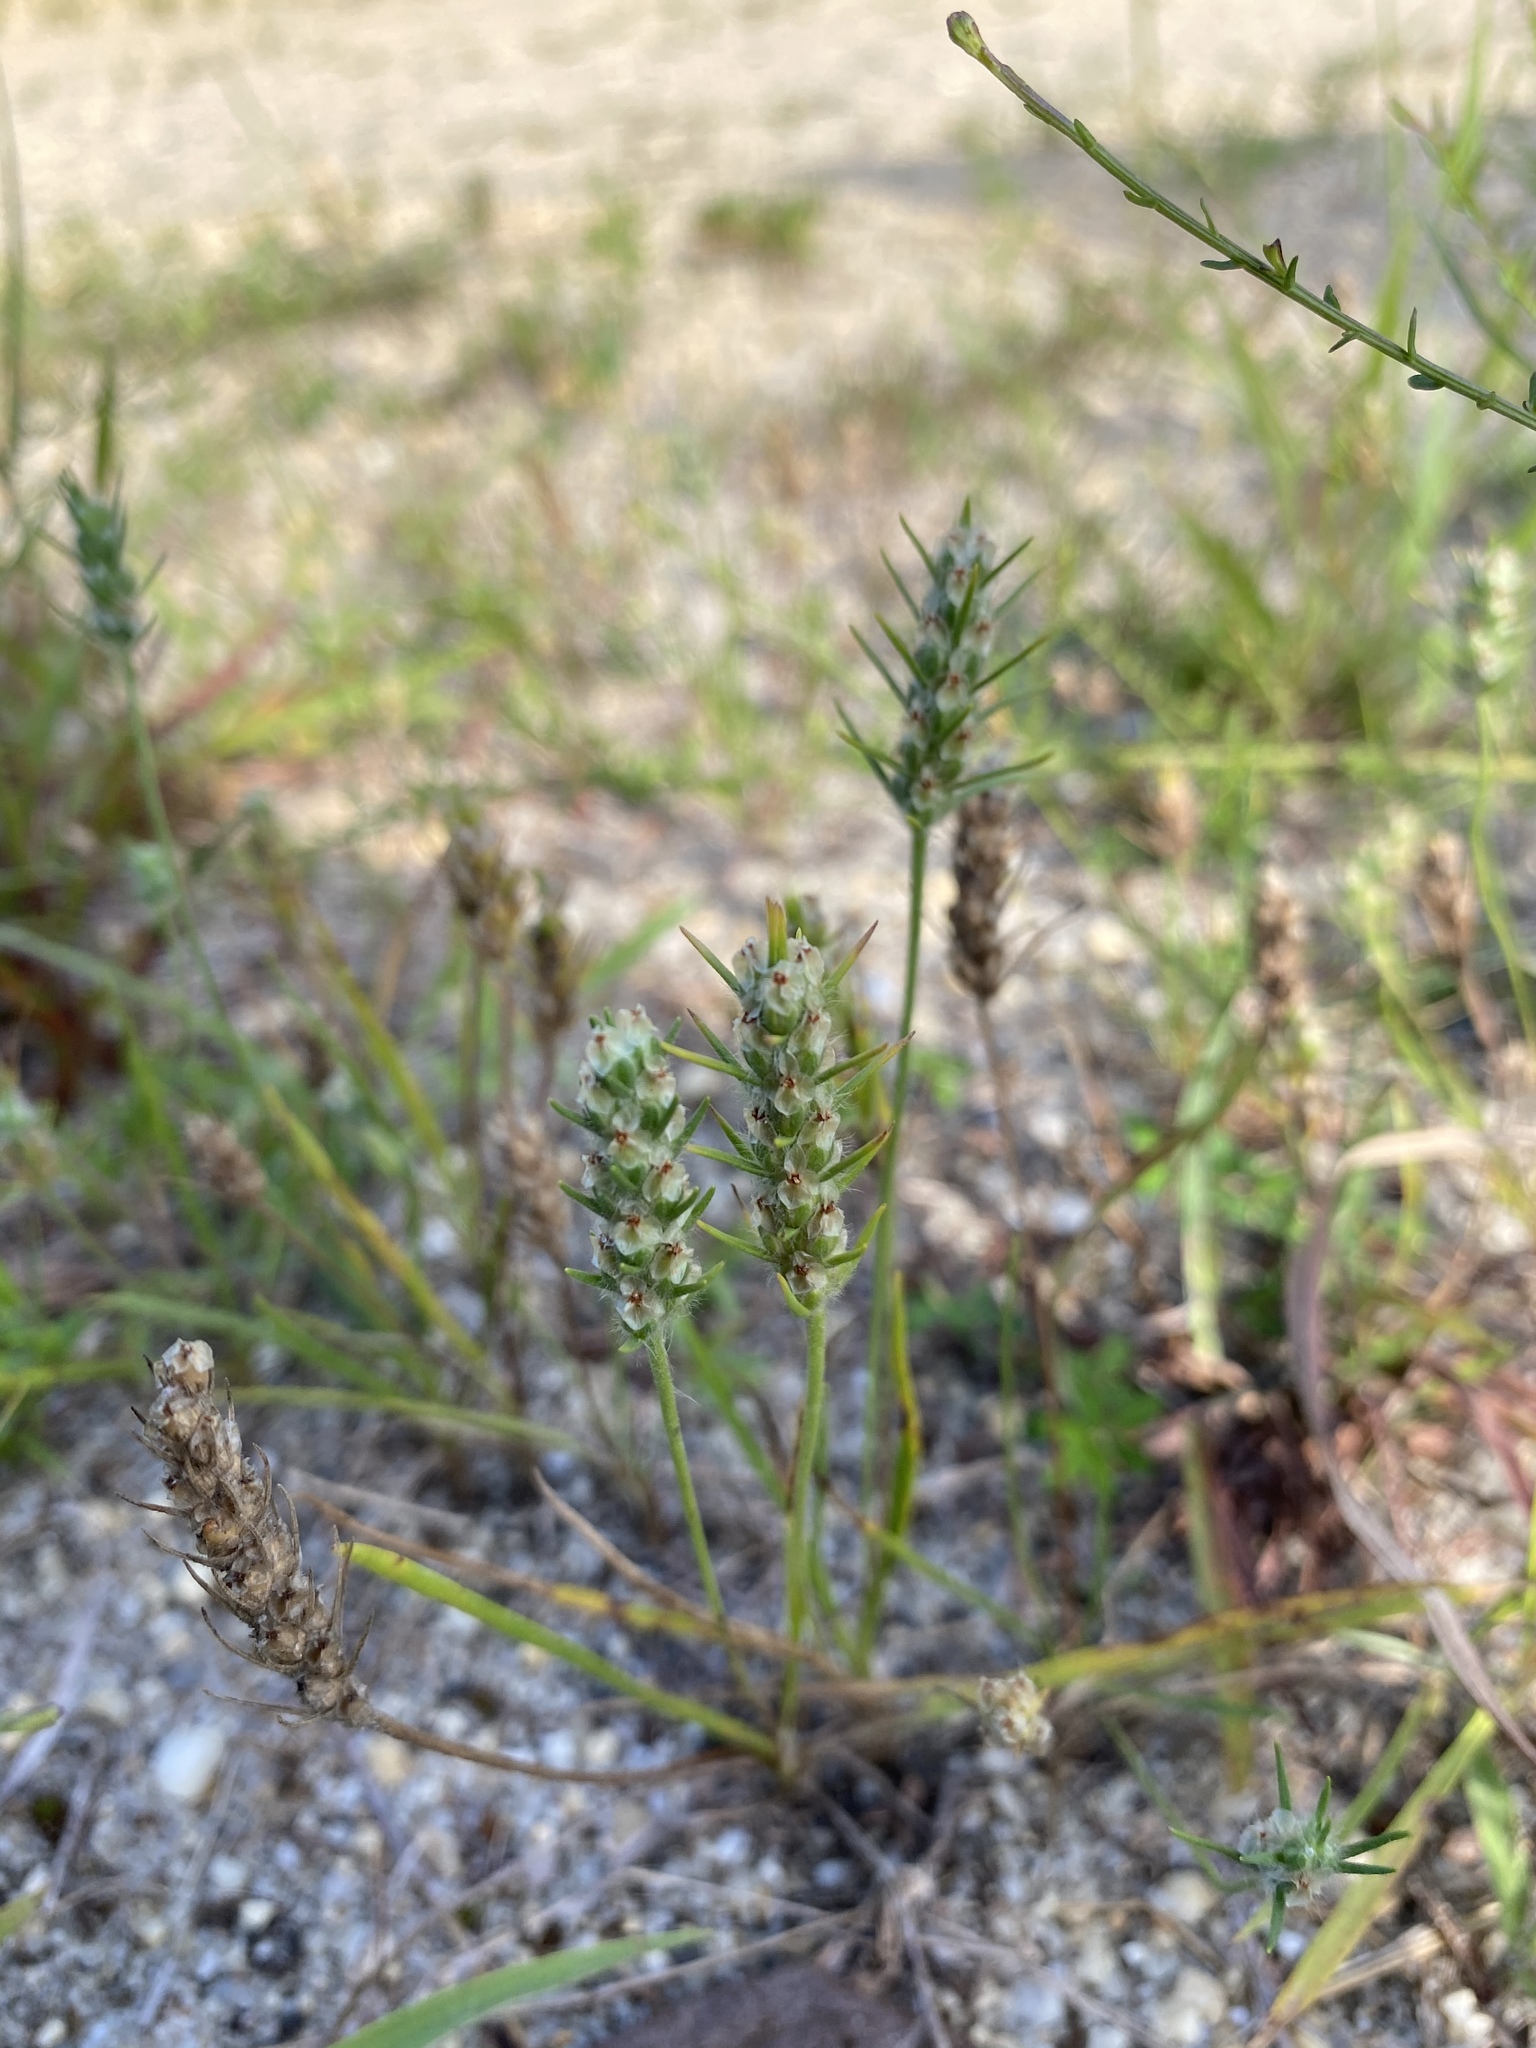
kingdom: Plantae
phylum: Tracheophyta
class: Magnoliopsida
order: Lamiales
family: Plantaginaceae
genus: Plantago
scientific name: Plantago aristata
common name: Bracted plantain
